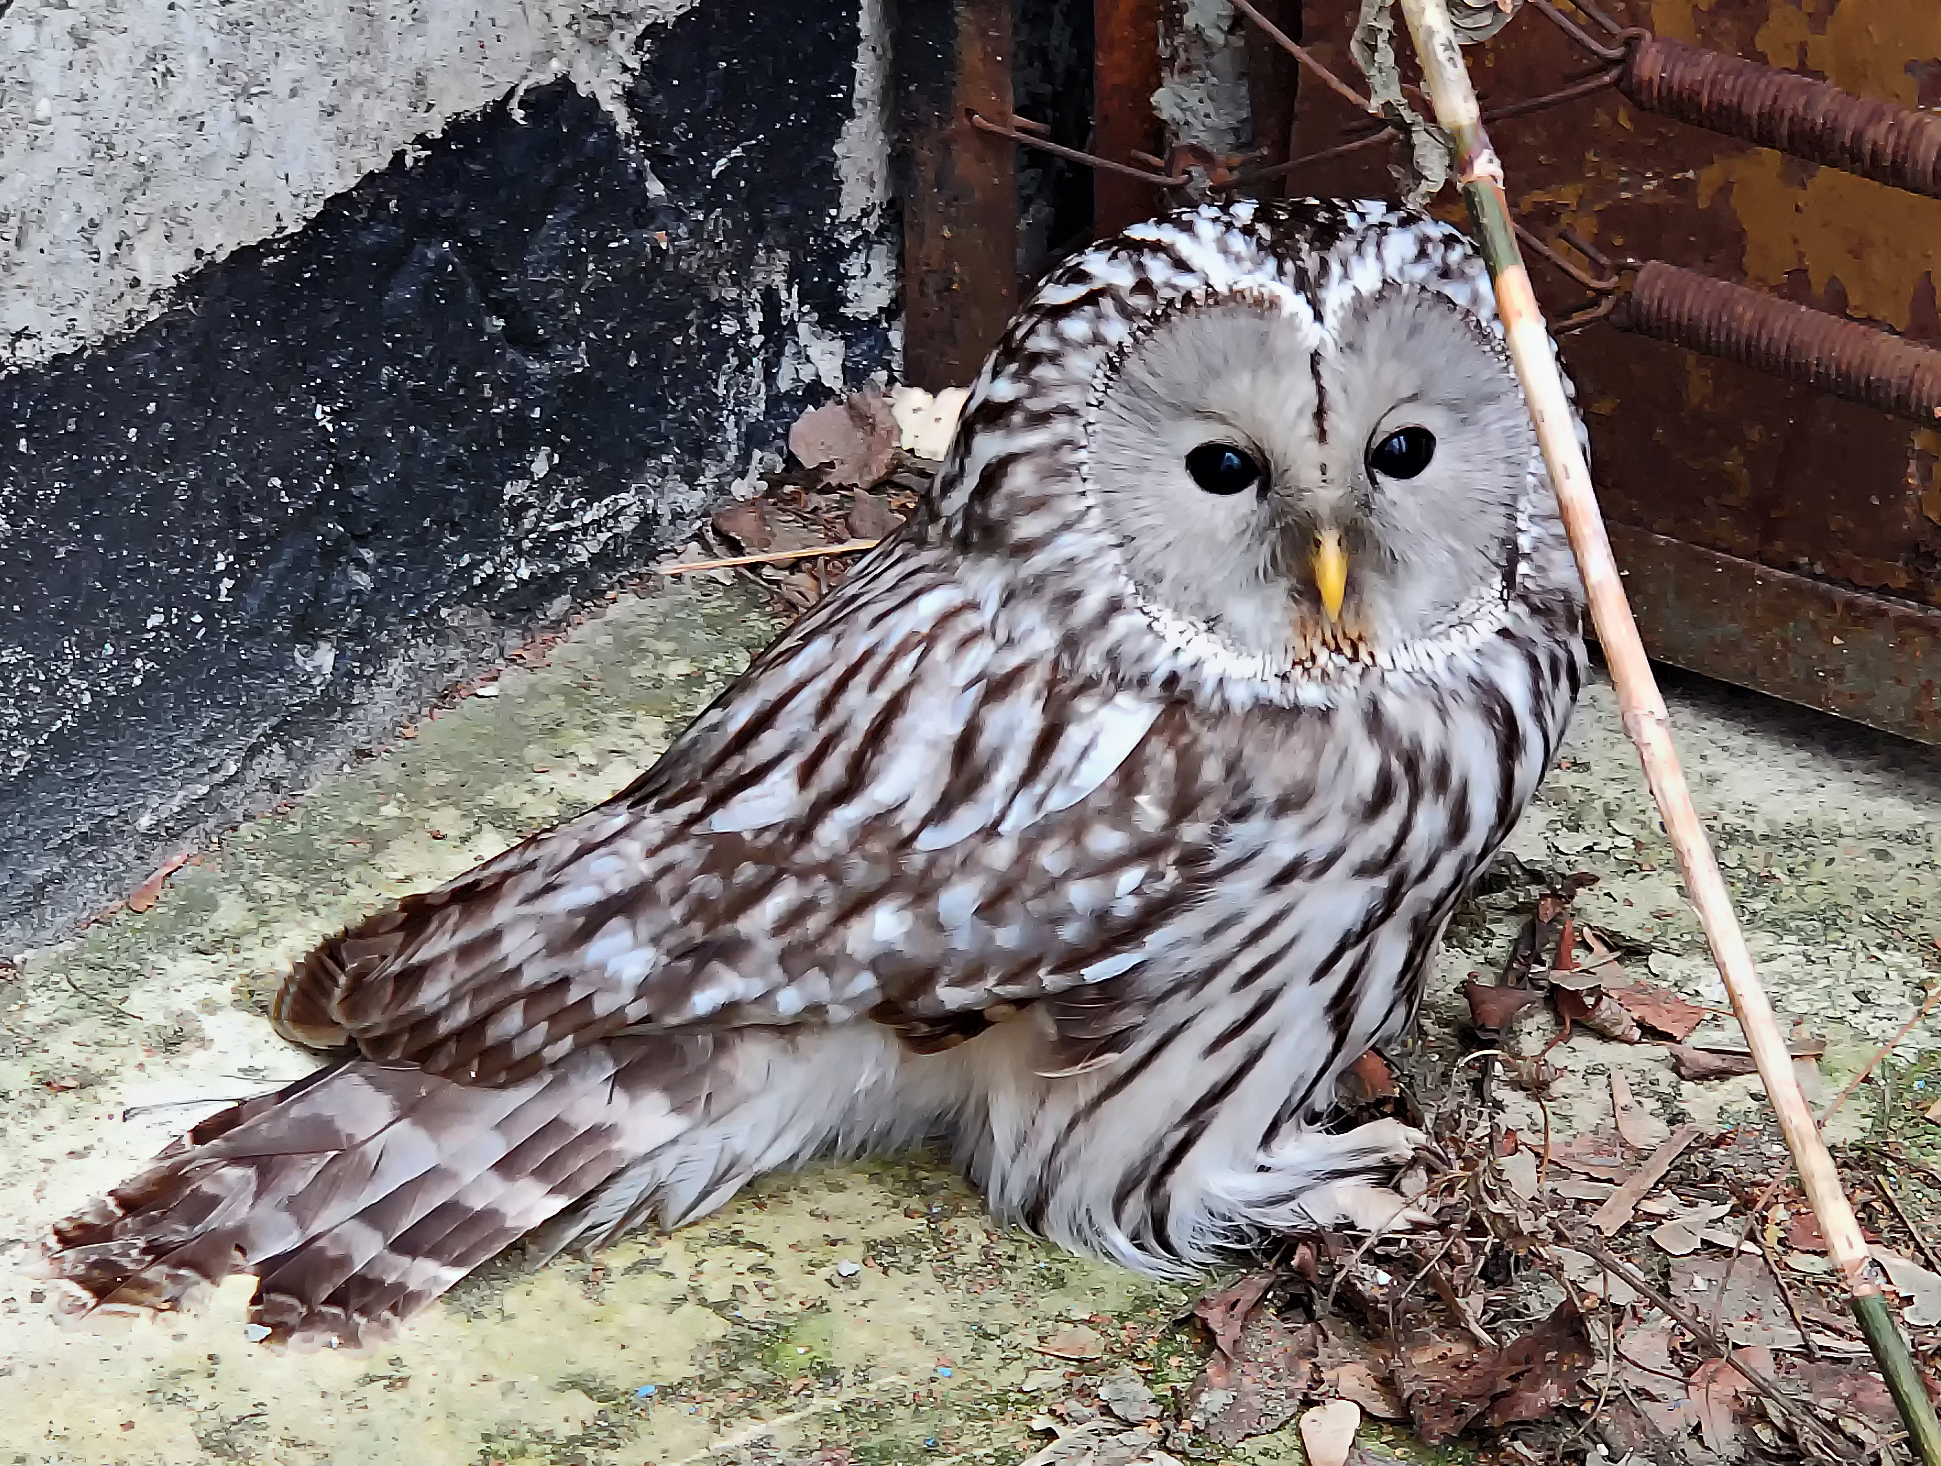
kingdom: Animalia
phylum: Chordata
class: Aves
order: Strigiformes
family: Strigidae
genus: Strix
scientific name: Strix uralensis
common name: Ural owl
